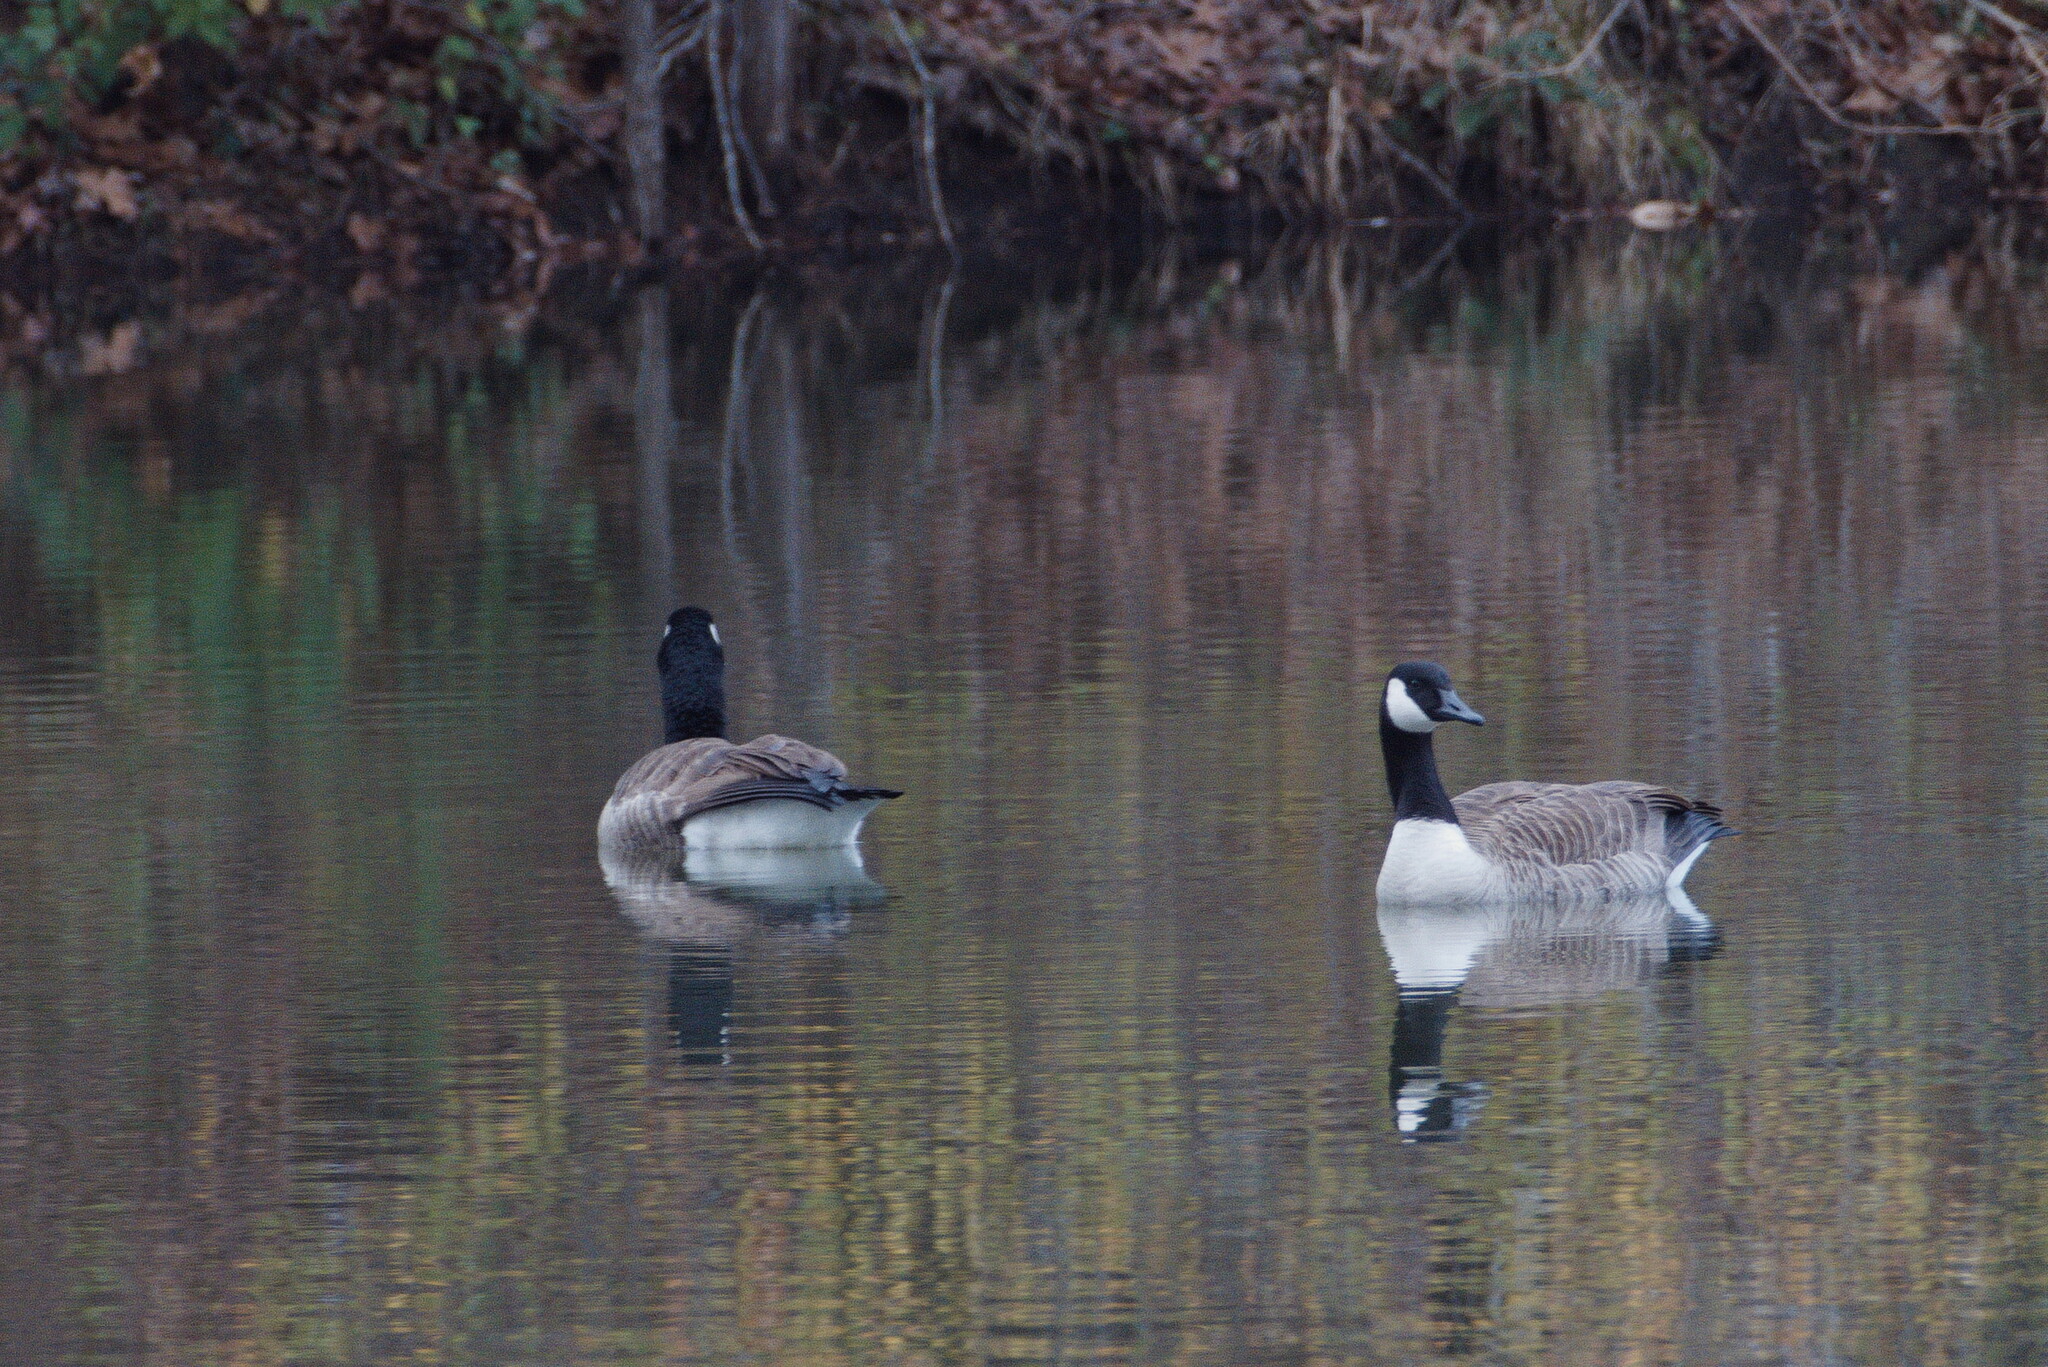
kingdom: Animalia
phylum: Chordata
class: Aves
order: Anseriformes
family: Anatidae
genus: Branta
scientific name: Branta canadensis
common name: Canada goose
